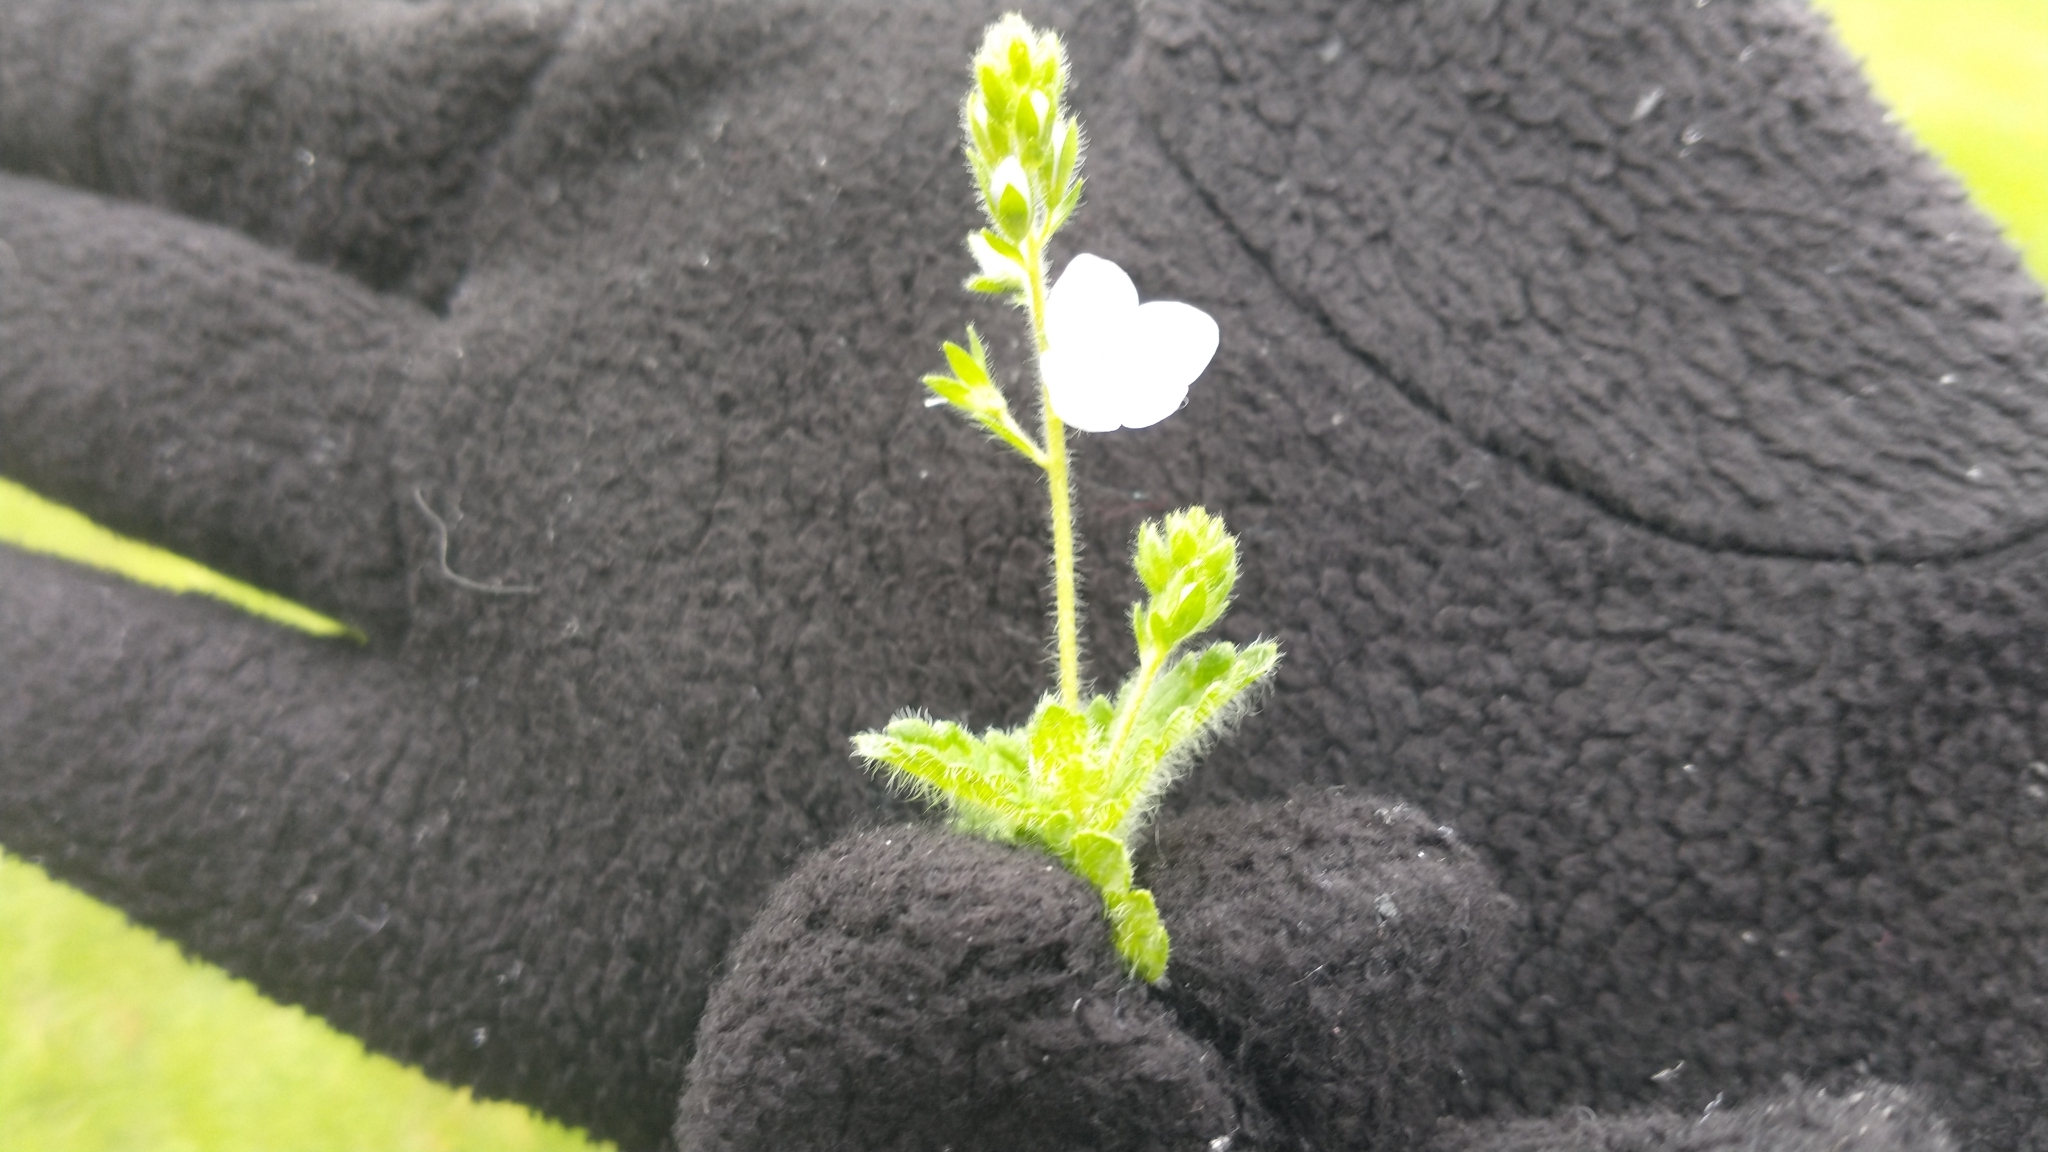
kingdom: Plantae
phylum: Tracheophyta
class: Magnoliopsida
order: Lamiales
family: Plantaginaceae
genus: Veronica
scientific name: Veronica officinalis
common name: Common speedwell
